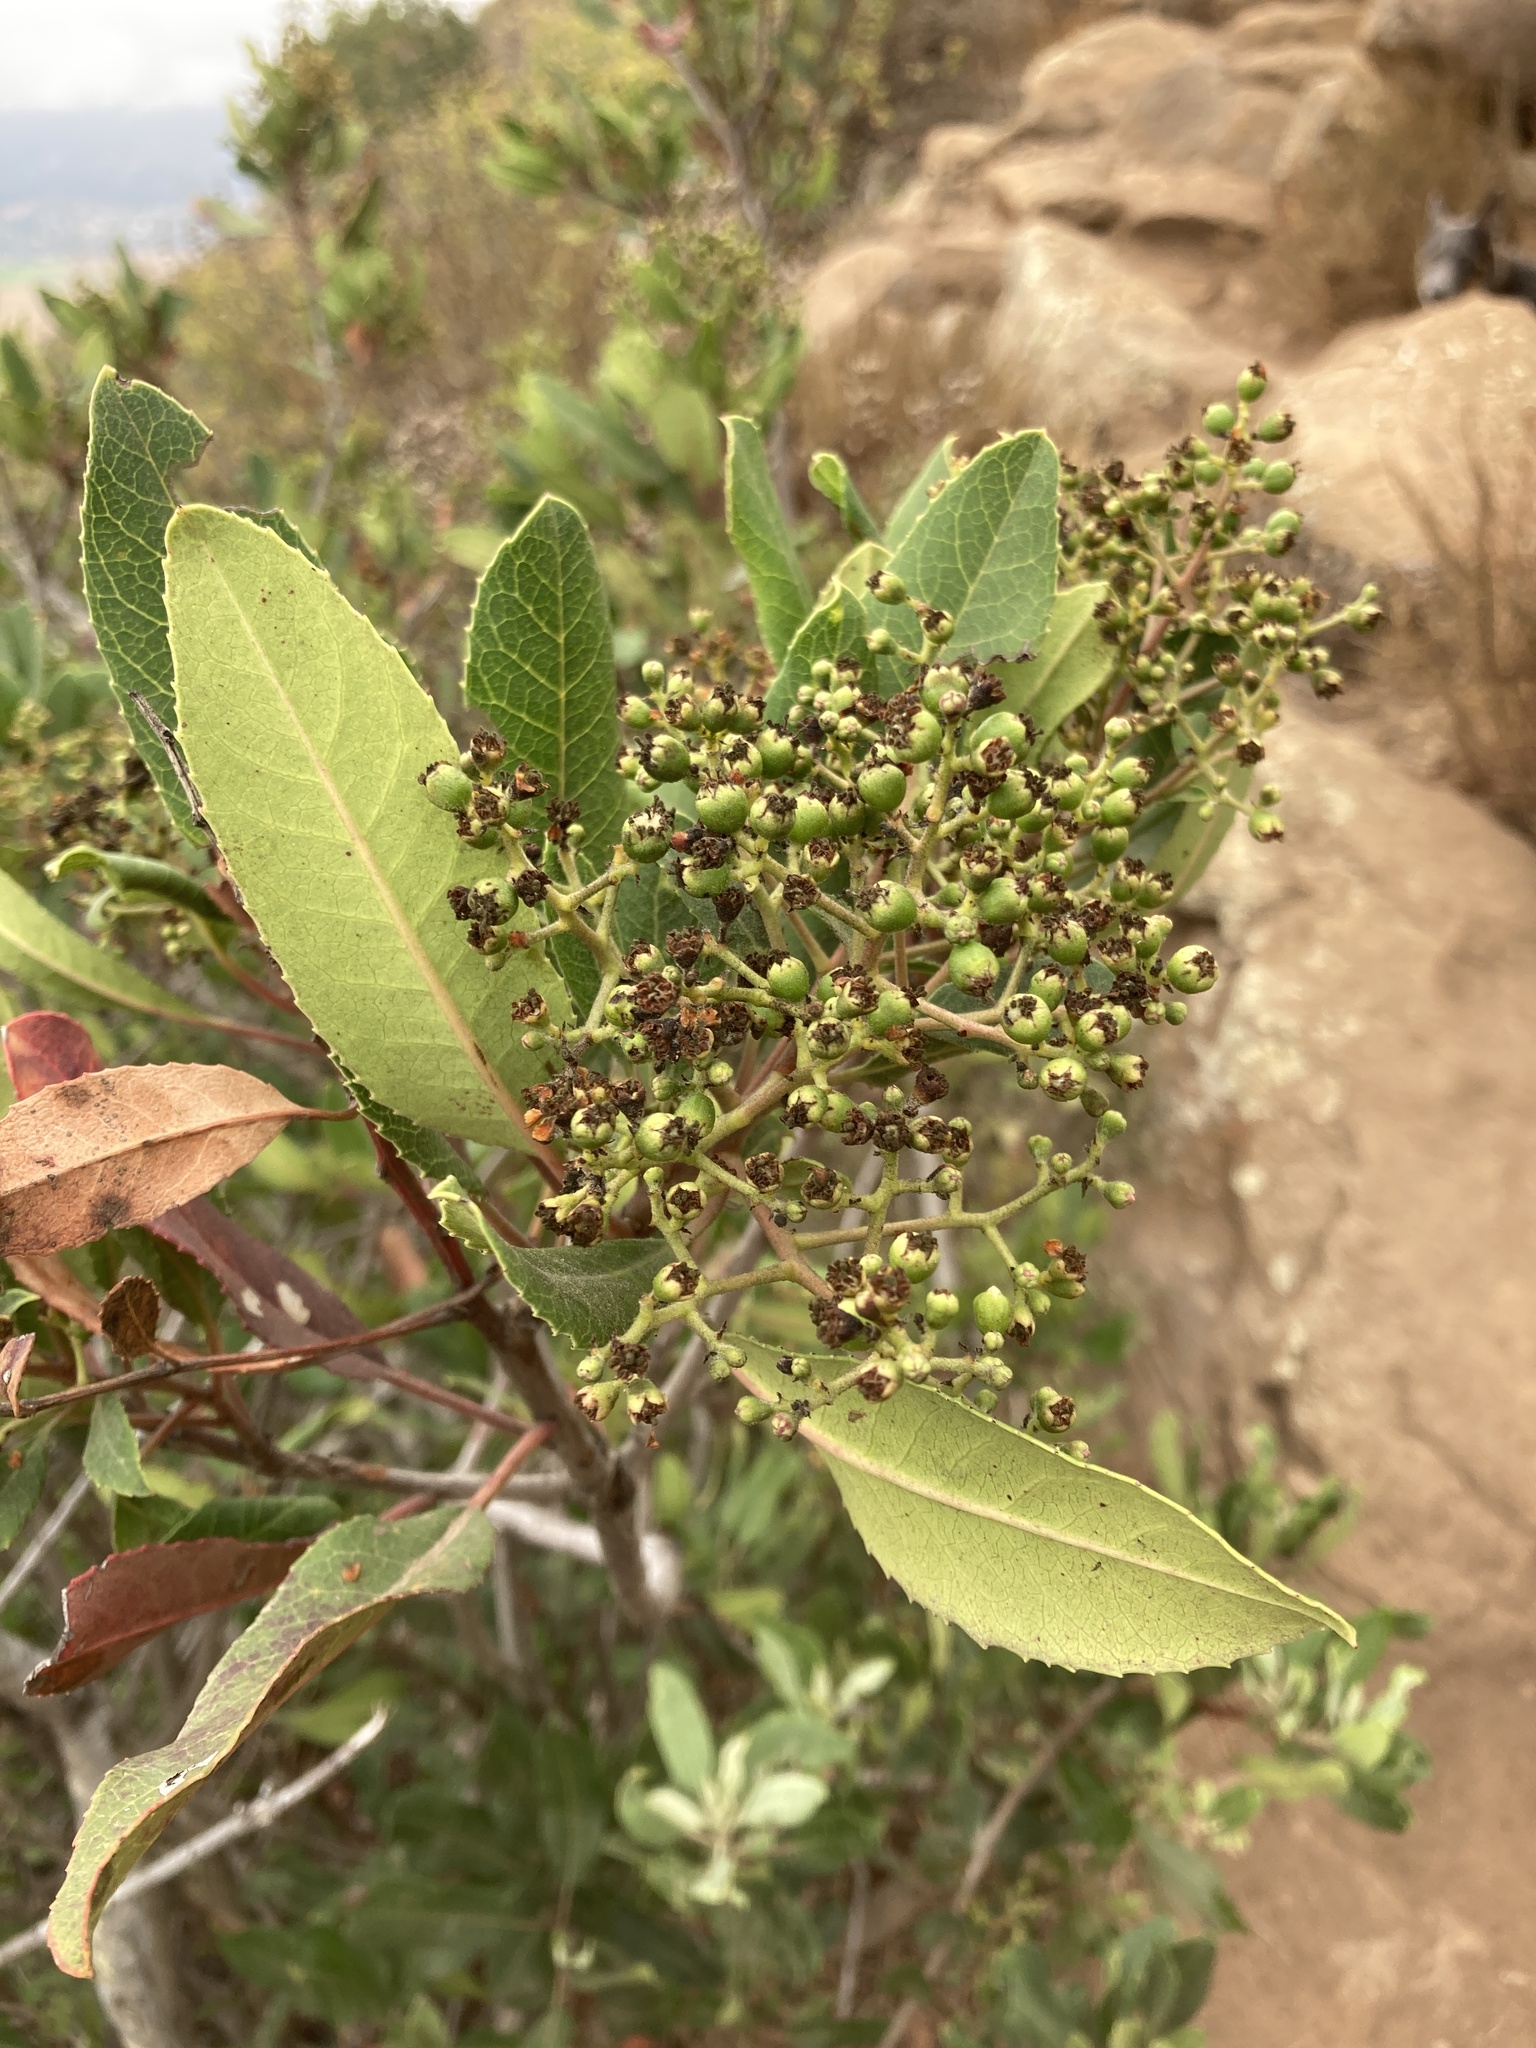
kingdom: Plantae
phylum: Tracheophyta
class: Magnoliopsida
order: Rosales
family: Rosaceae
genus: Heteromeles
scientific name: Heteromeles arbutifolia
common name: California-holly
